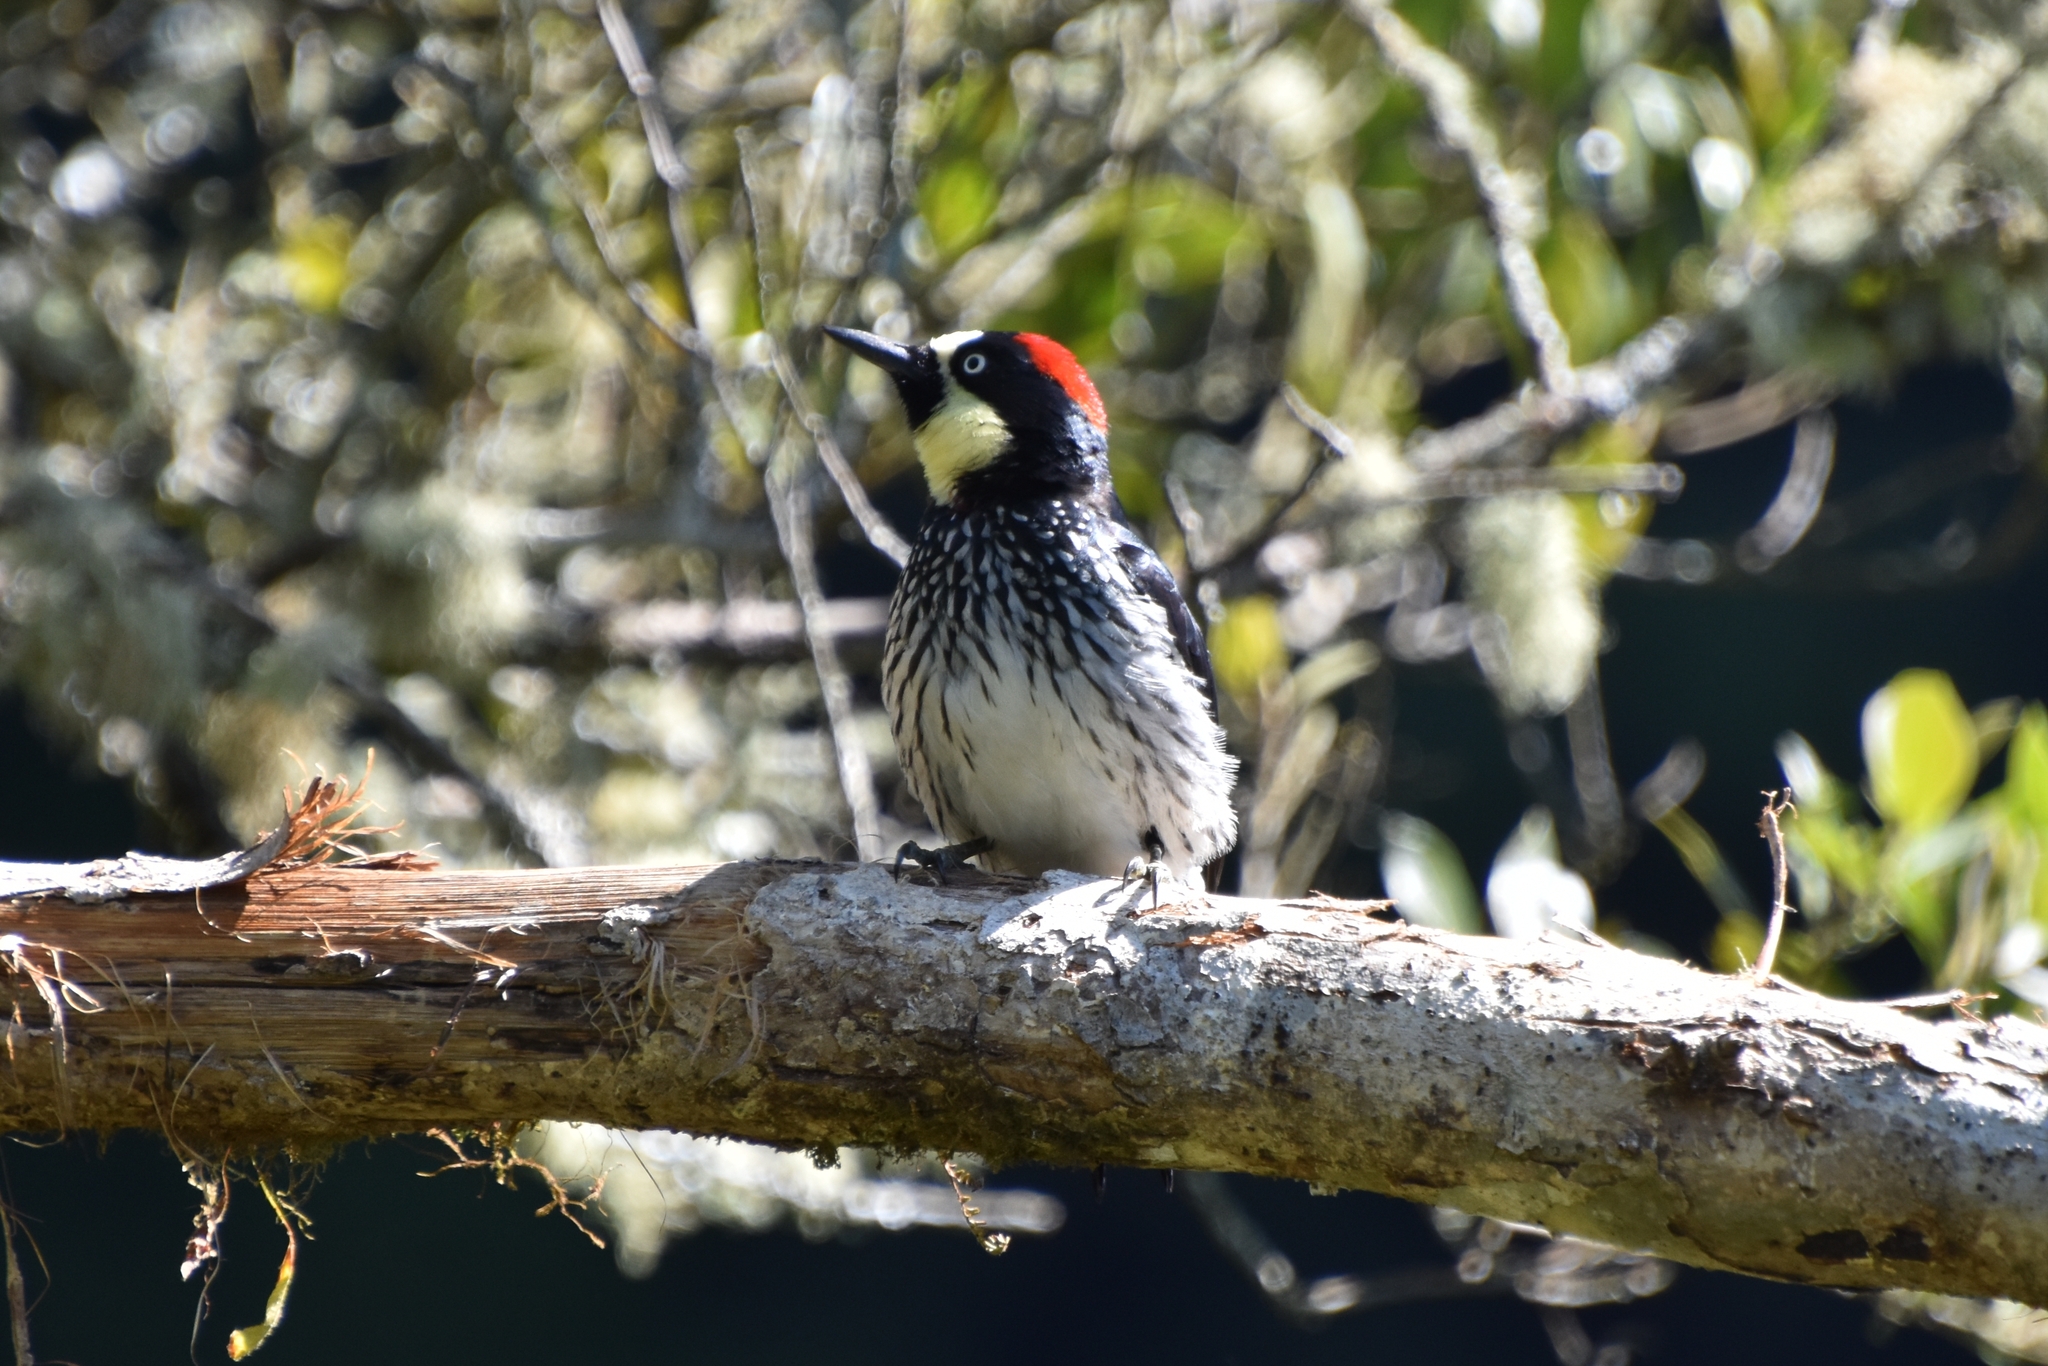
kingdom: Animalia
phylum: Chordata
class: Aves
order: Piciformes
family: Picidae
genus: Melanerpes
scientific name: Melanerpes formicivorus
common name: Acorn woodpecker
